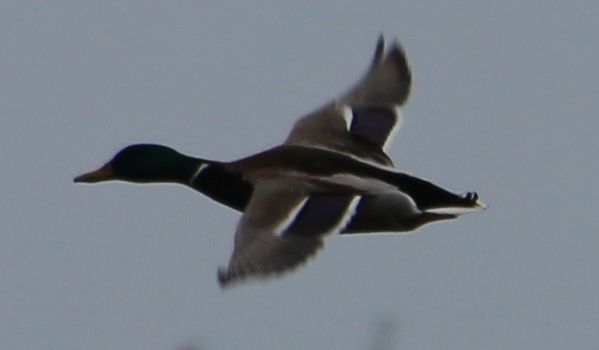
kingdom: Animalia
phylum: Chordata
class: Aves
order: Anseriformes
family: Anatidae
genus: Anas
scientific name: Anas platyrhynchos
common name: Mallard
